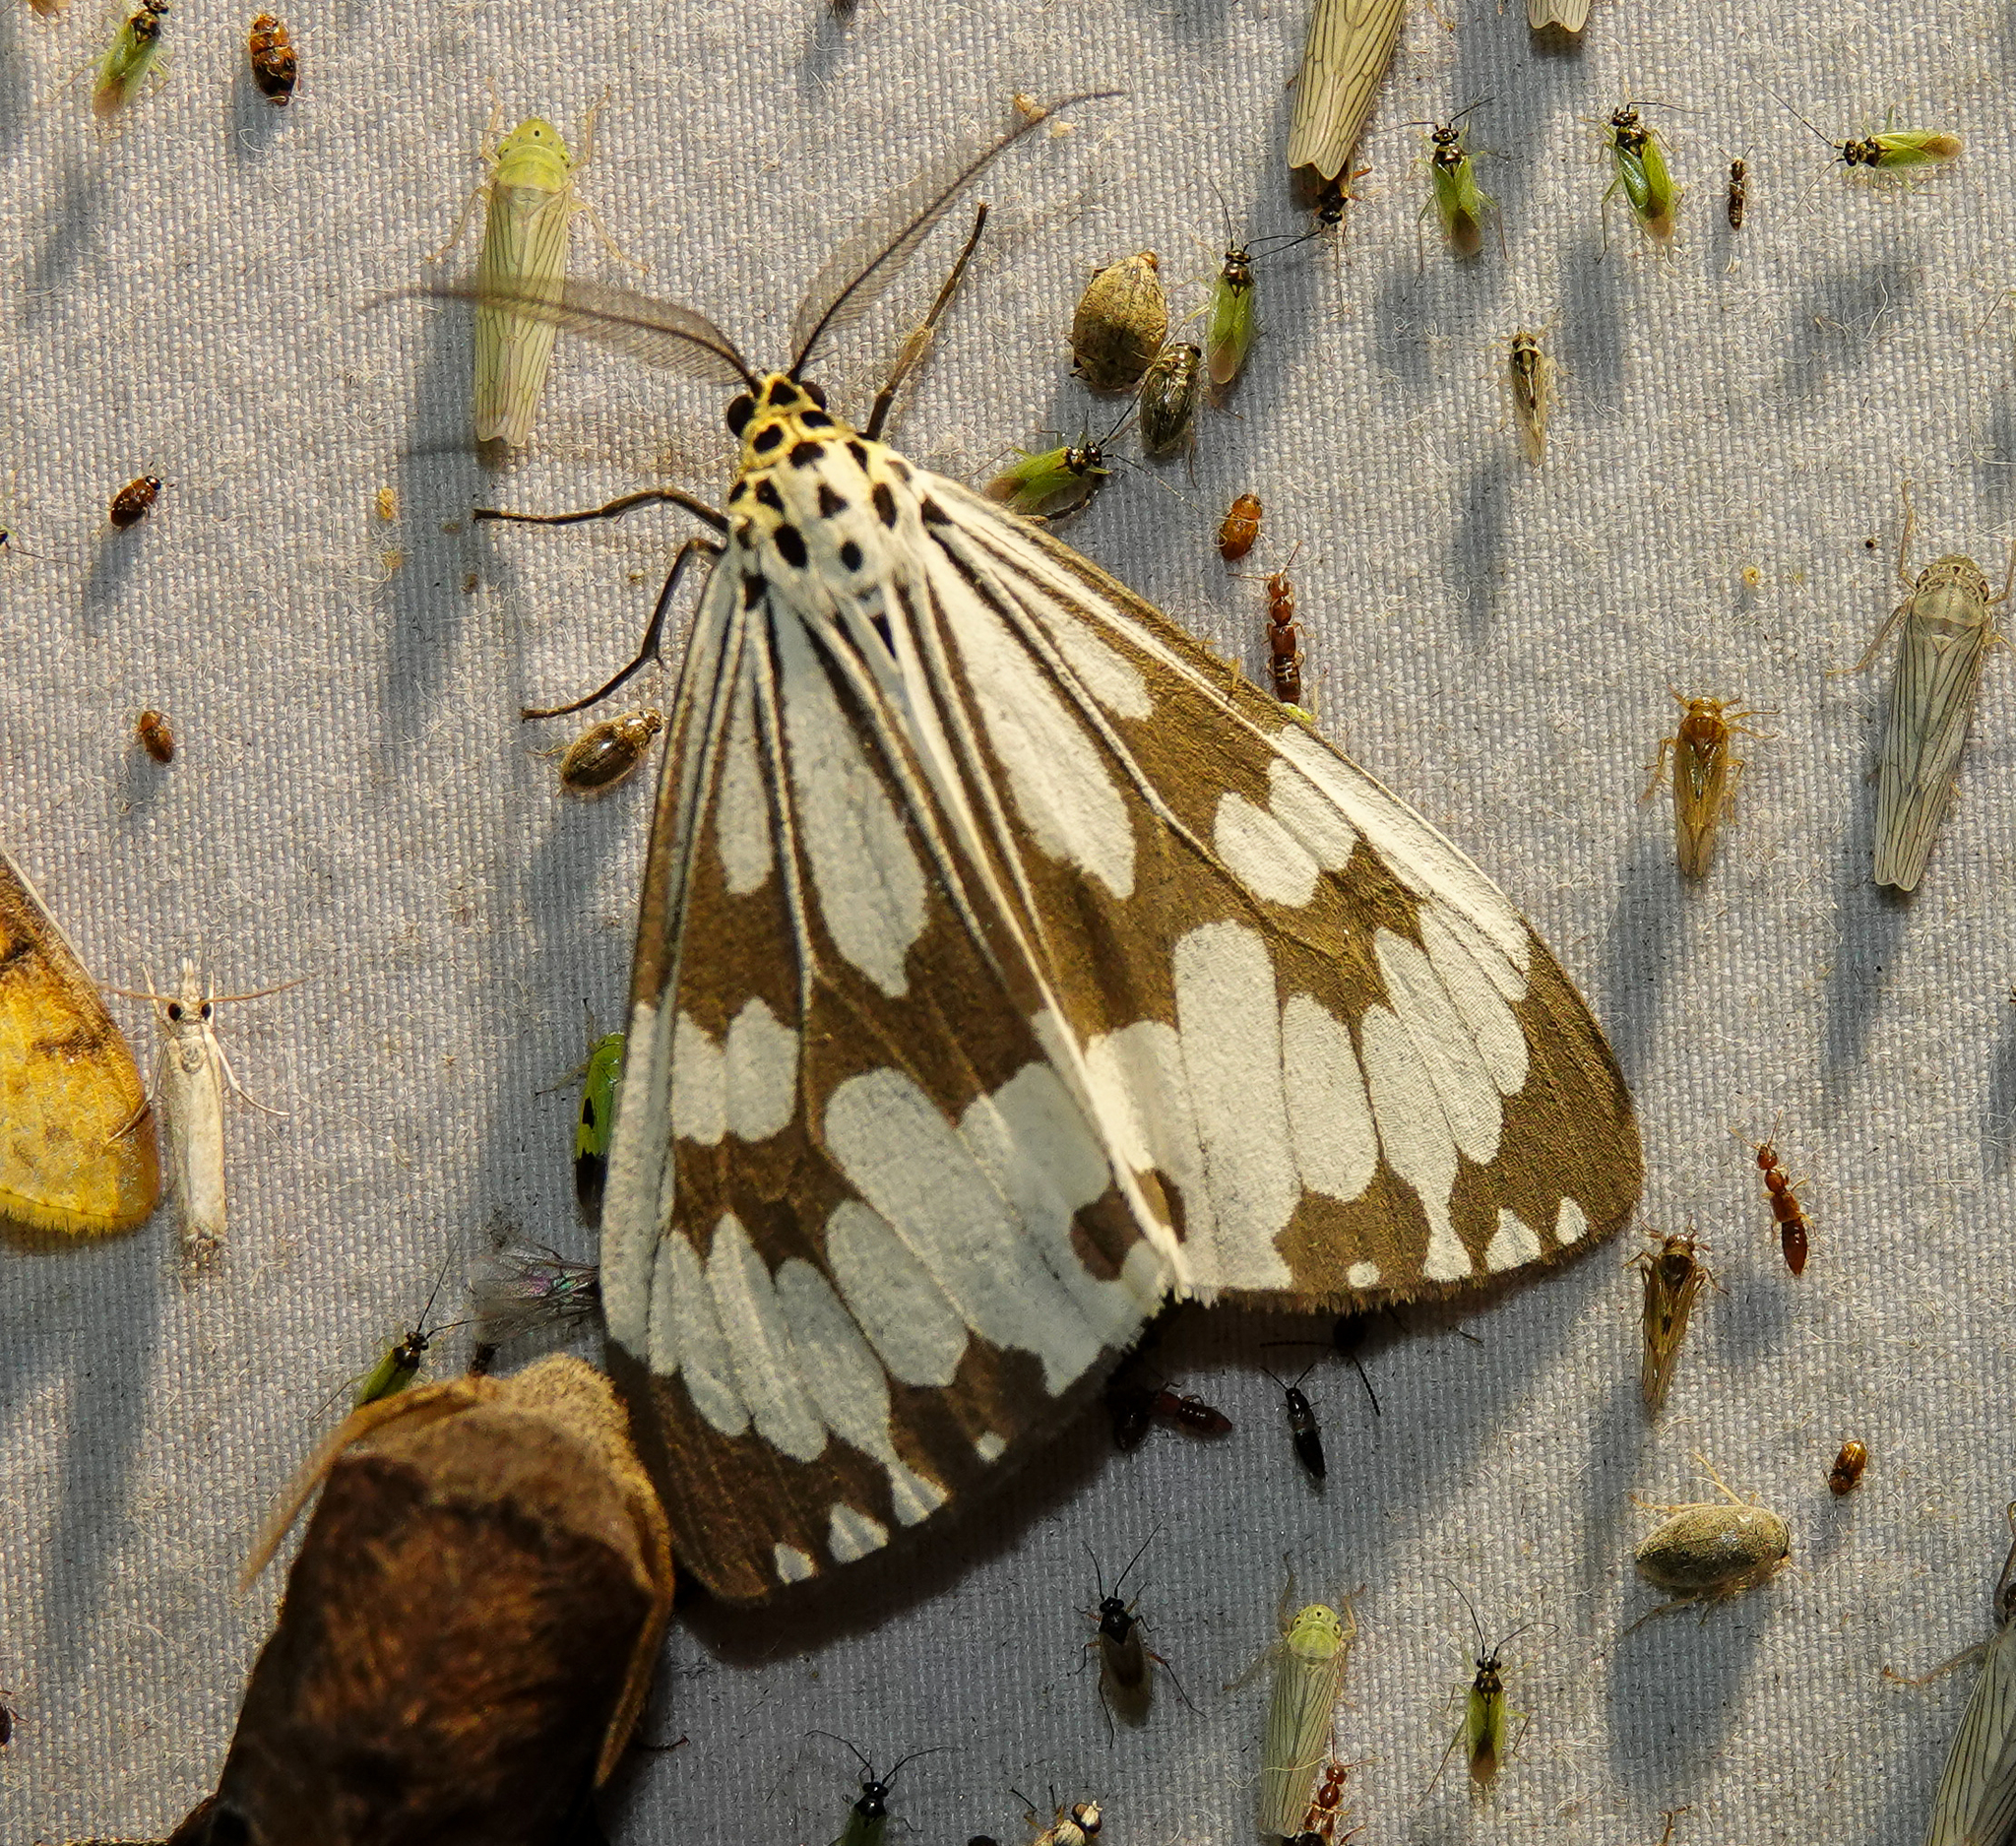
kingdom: Animalia
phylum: Arthropoda
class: Insecta
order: Lepidoptera
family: Erebidae
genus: Nyctemera
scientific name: Nyctemera adversata
